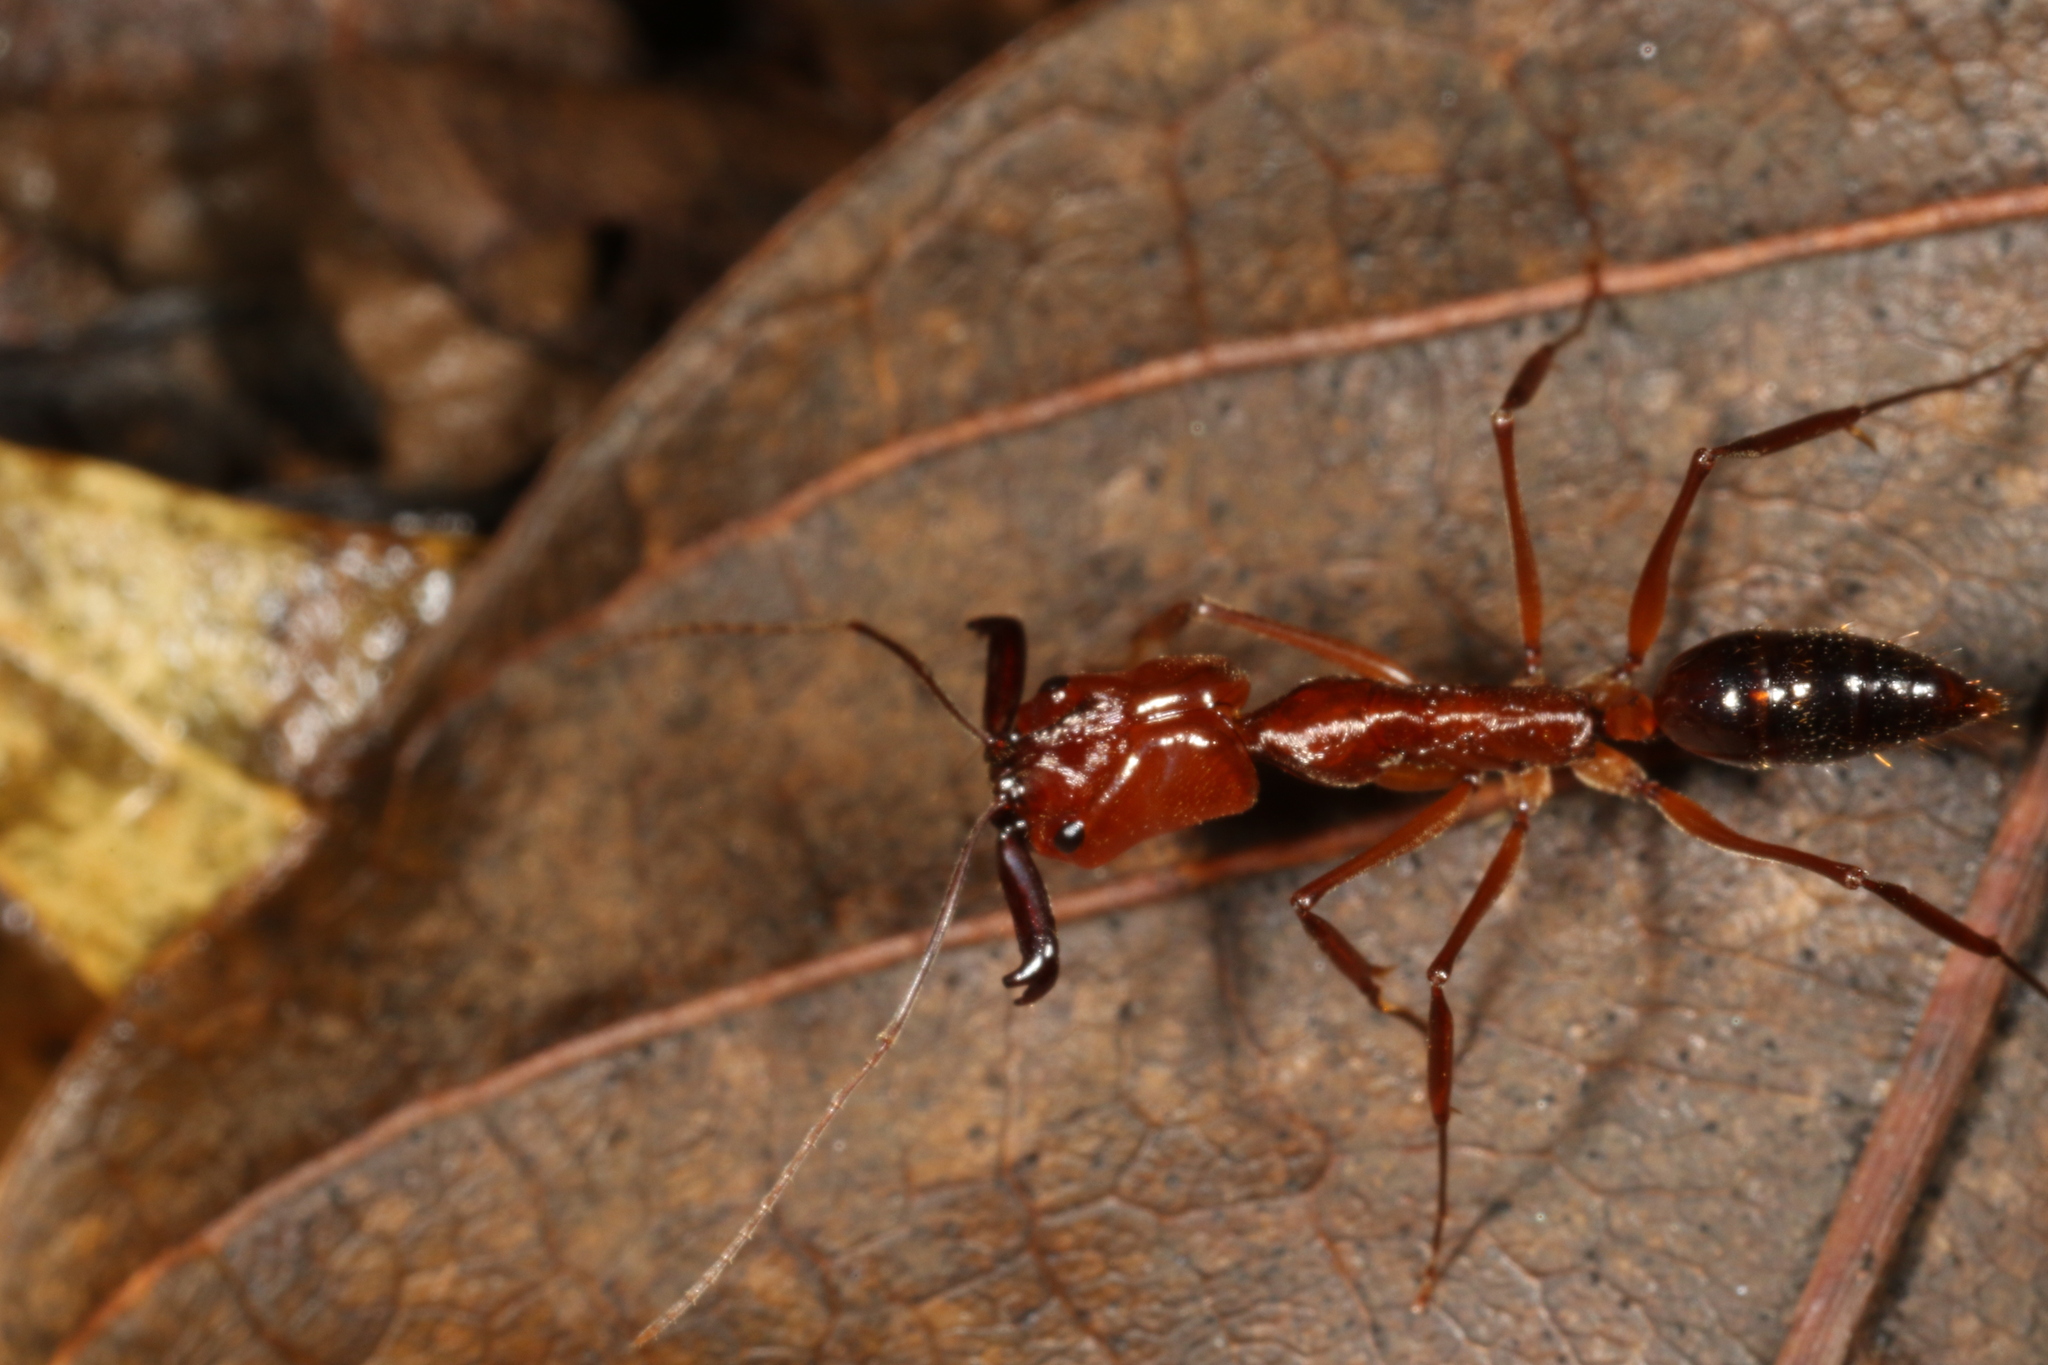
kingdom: Animalia
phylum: Arthropoda
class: Insecta
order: Hymenoptera
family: Formicidae
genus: Odontomachus
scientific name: Odontomachus affinis
